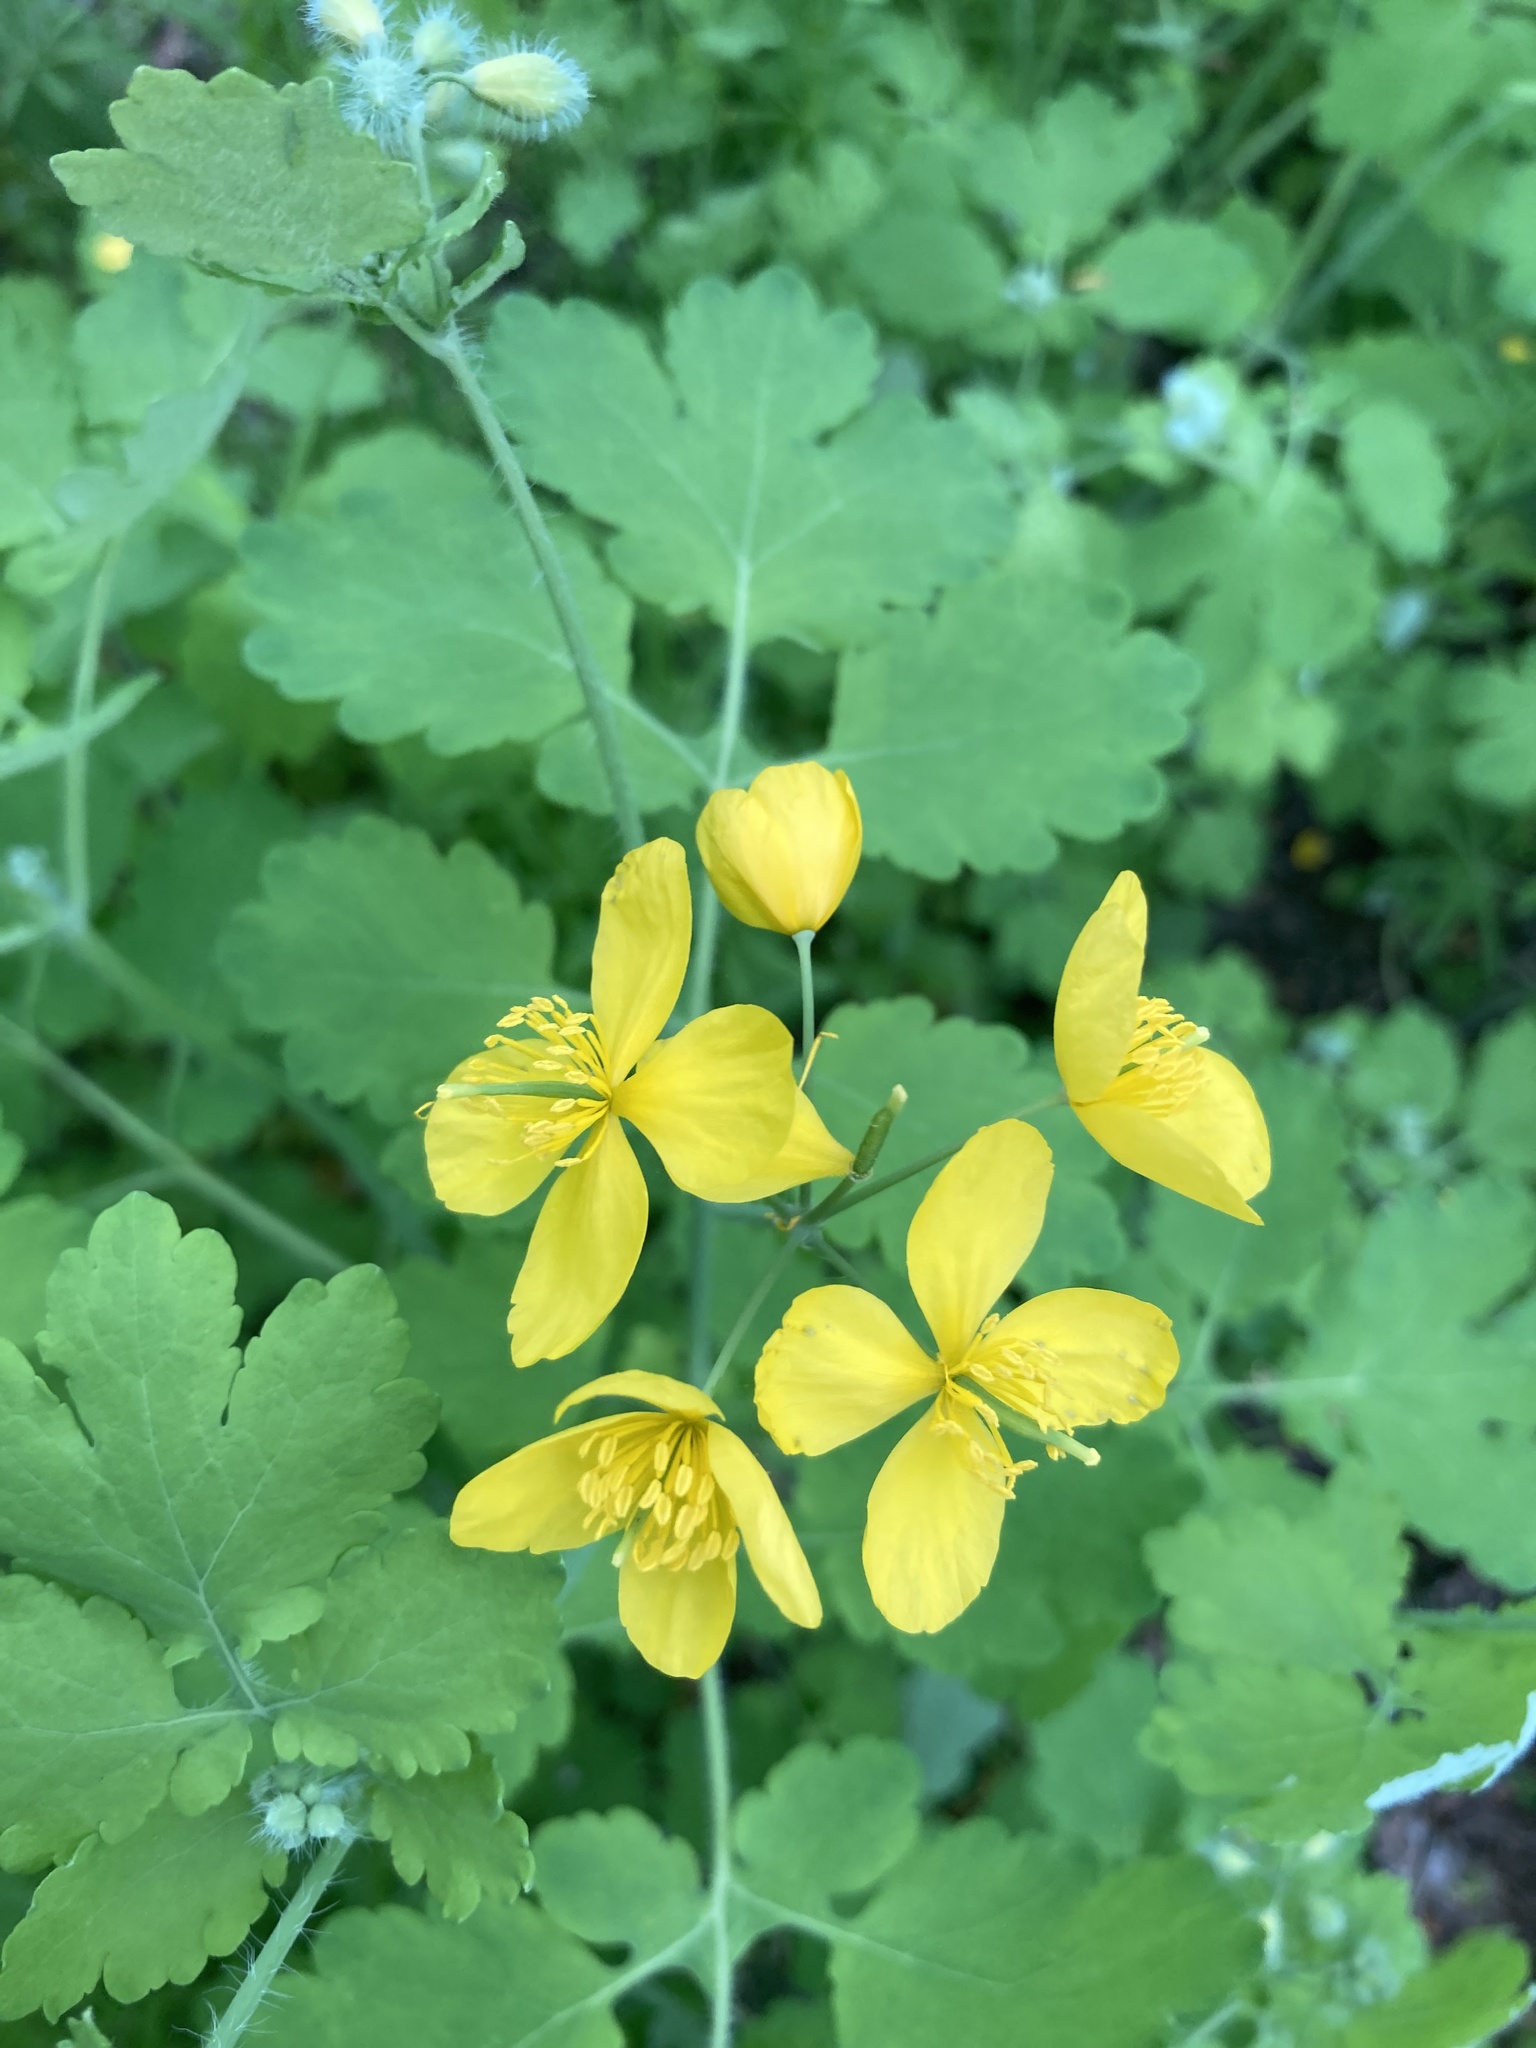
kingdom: Plantae
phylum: Tracheophyta
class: Magnoliopsida
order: Ranunculales
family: Papaveraceae
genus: Chelidonium
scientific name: Chelidonium majus
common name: Greater celandine
